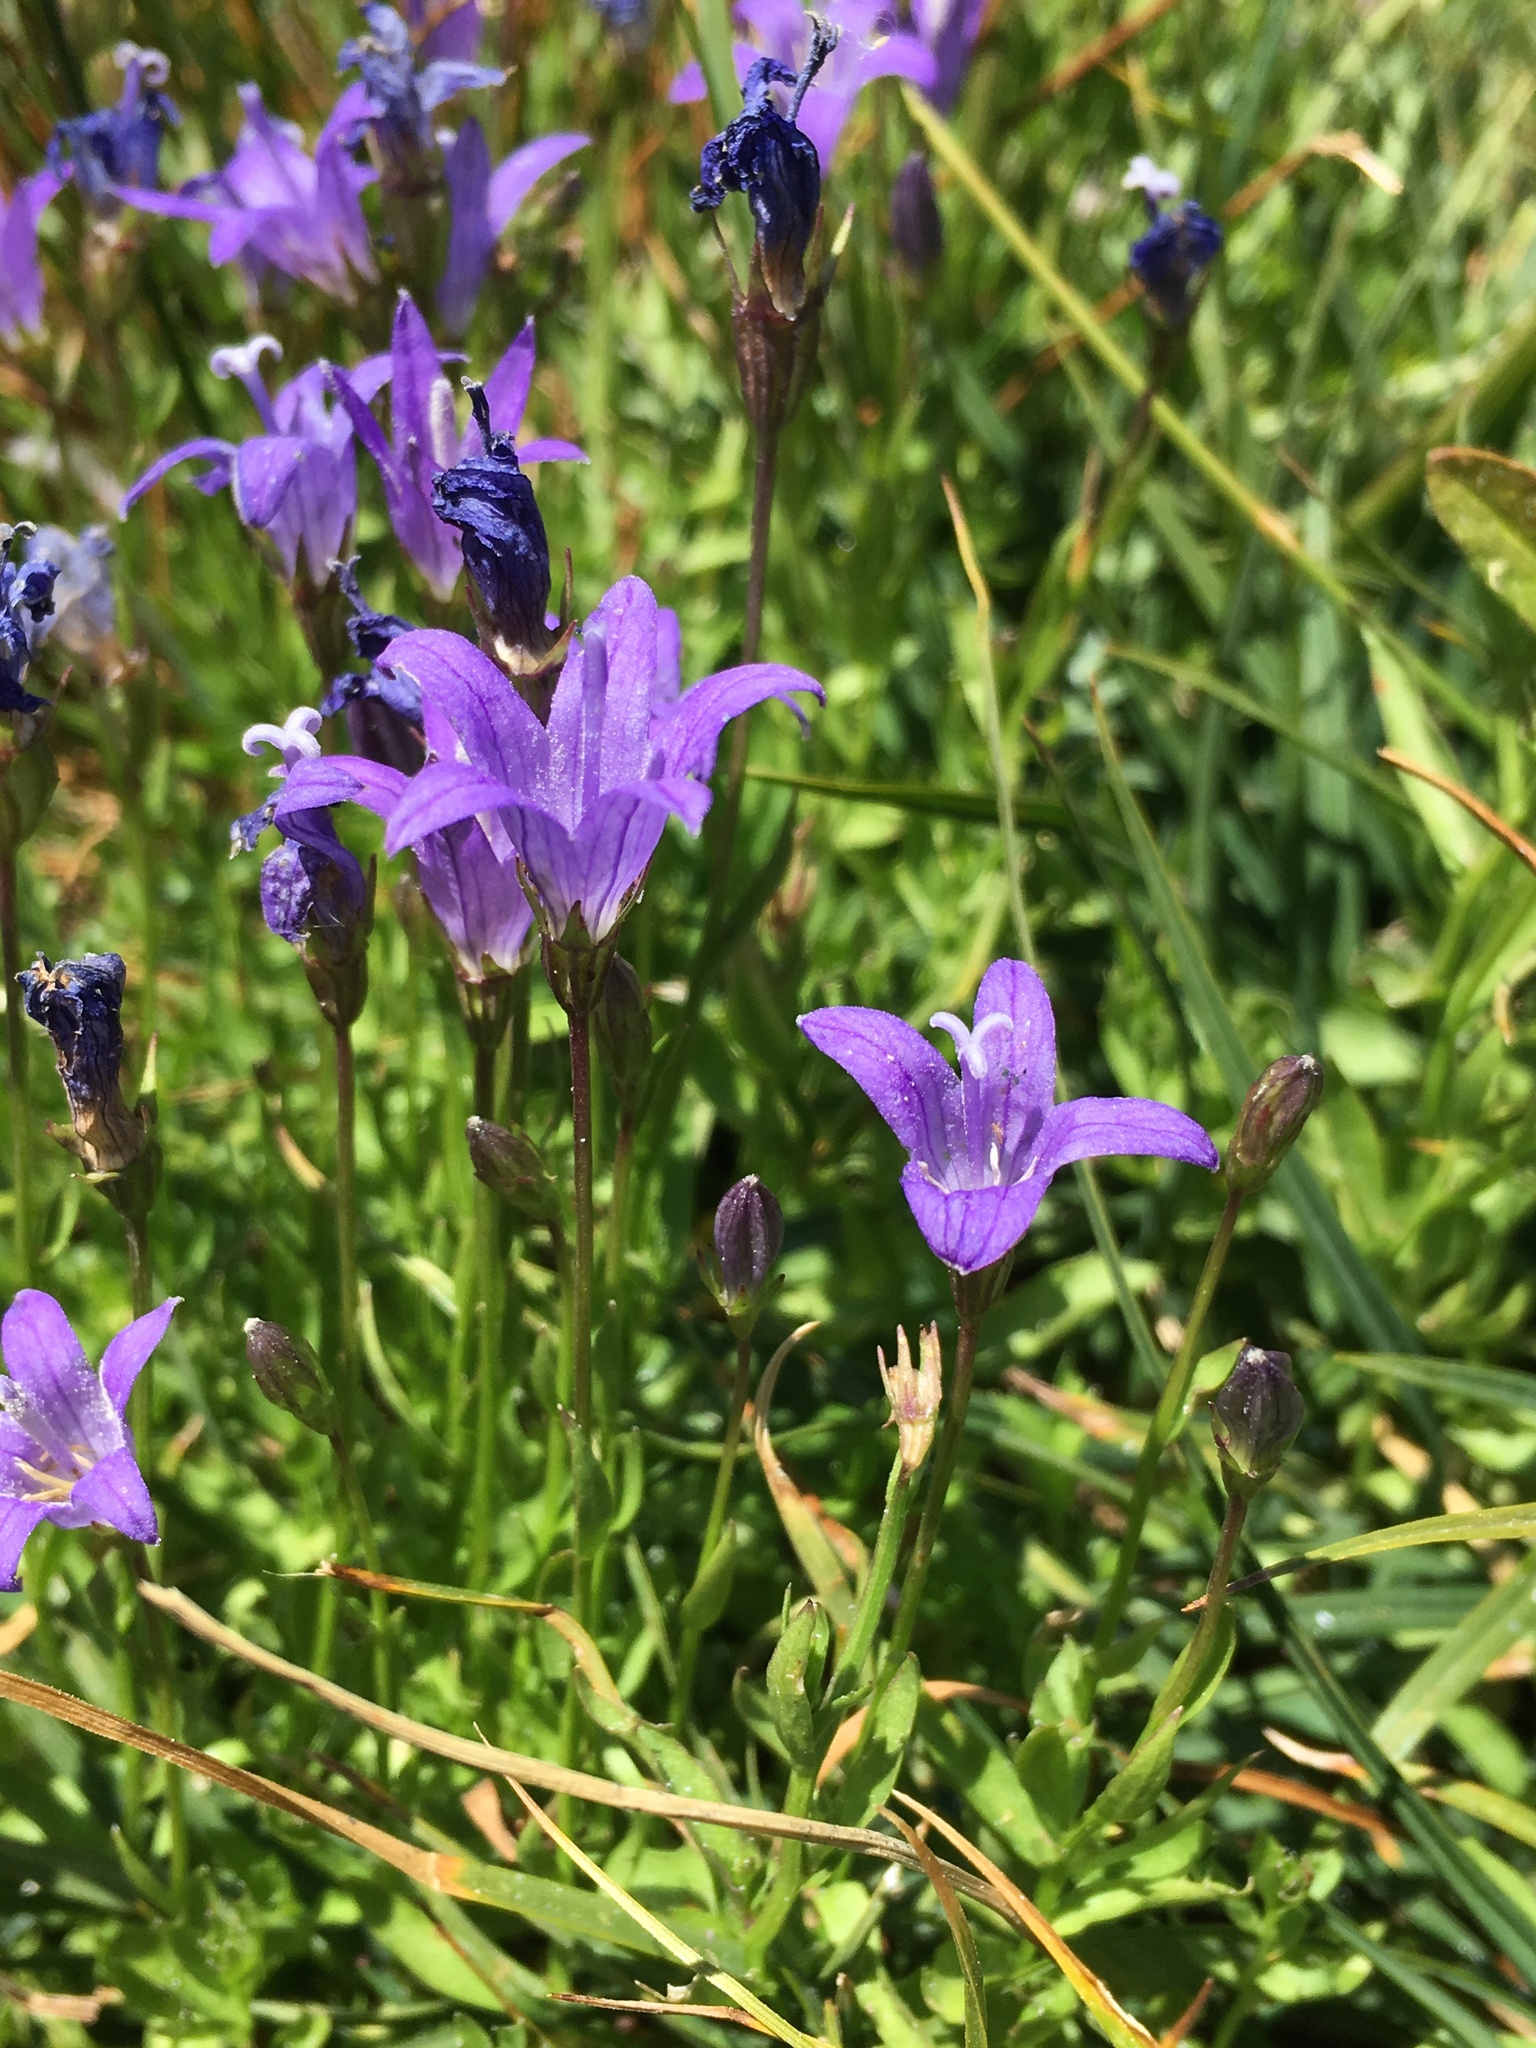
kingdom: Plantae
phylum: Tracheophyta
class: Magnoliopsida
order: Asterales
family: Campanulaceae
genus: Smithiastrum
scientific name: Smithiastrum wilkinsianum
